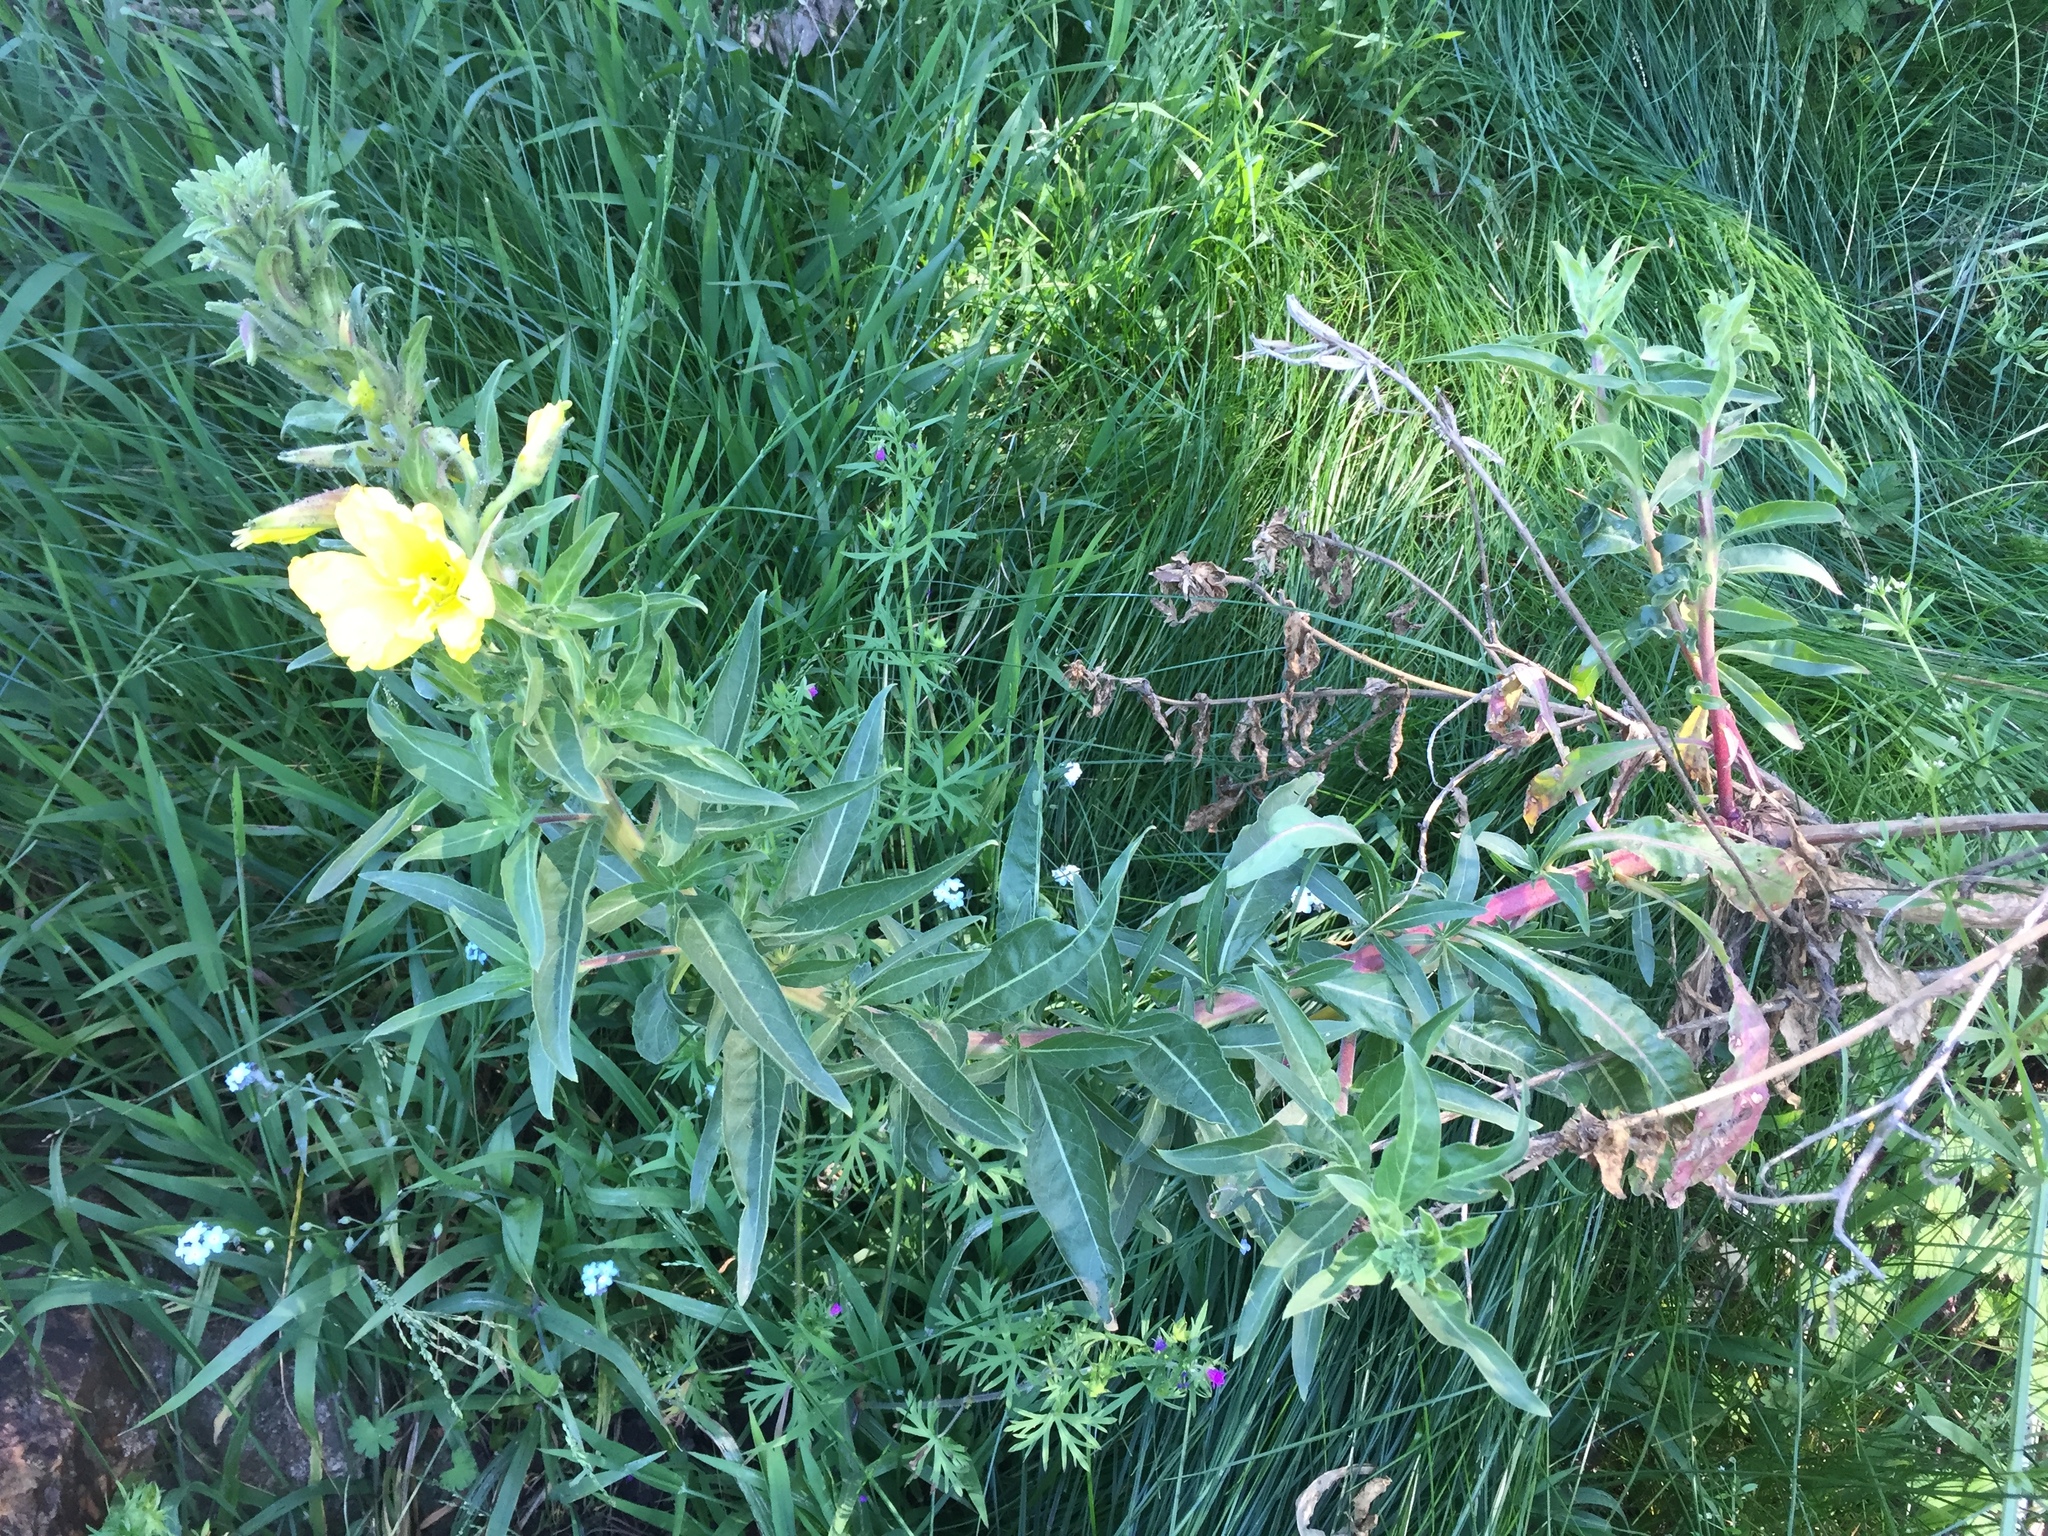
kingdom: Plantae
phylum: Tracheophyta
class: Magnoliopsida
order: Myrtales
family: Onagraceae
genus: Oenothera
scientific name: Oenothera elata
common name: Hooker's evening-primrose
